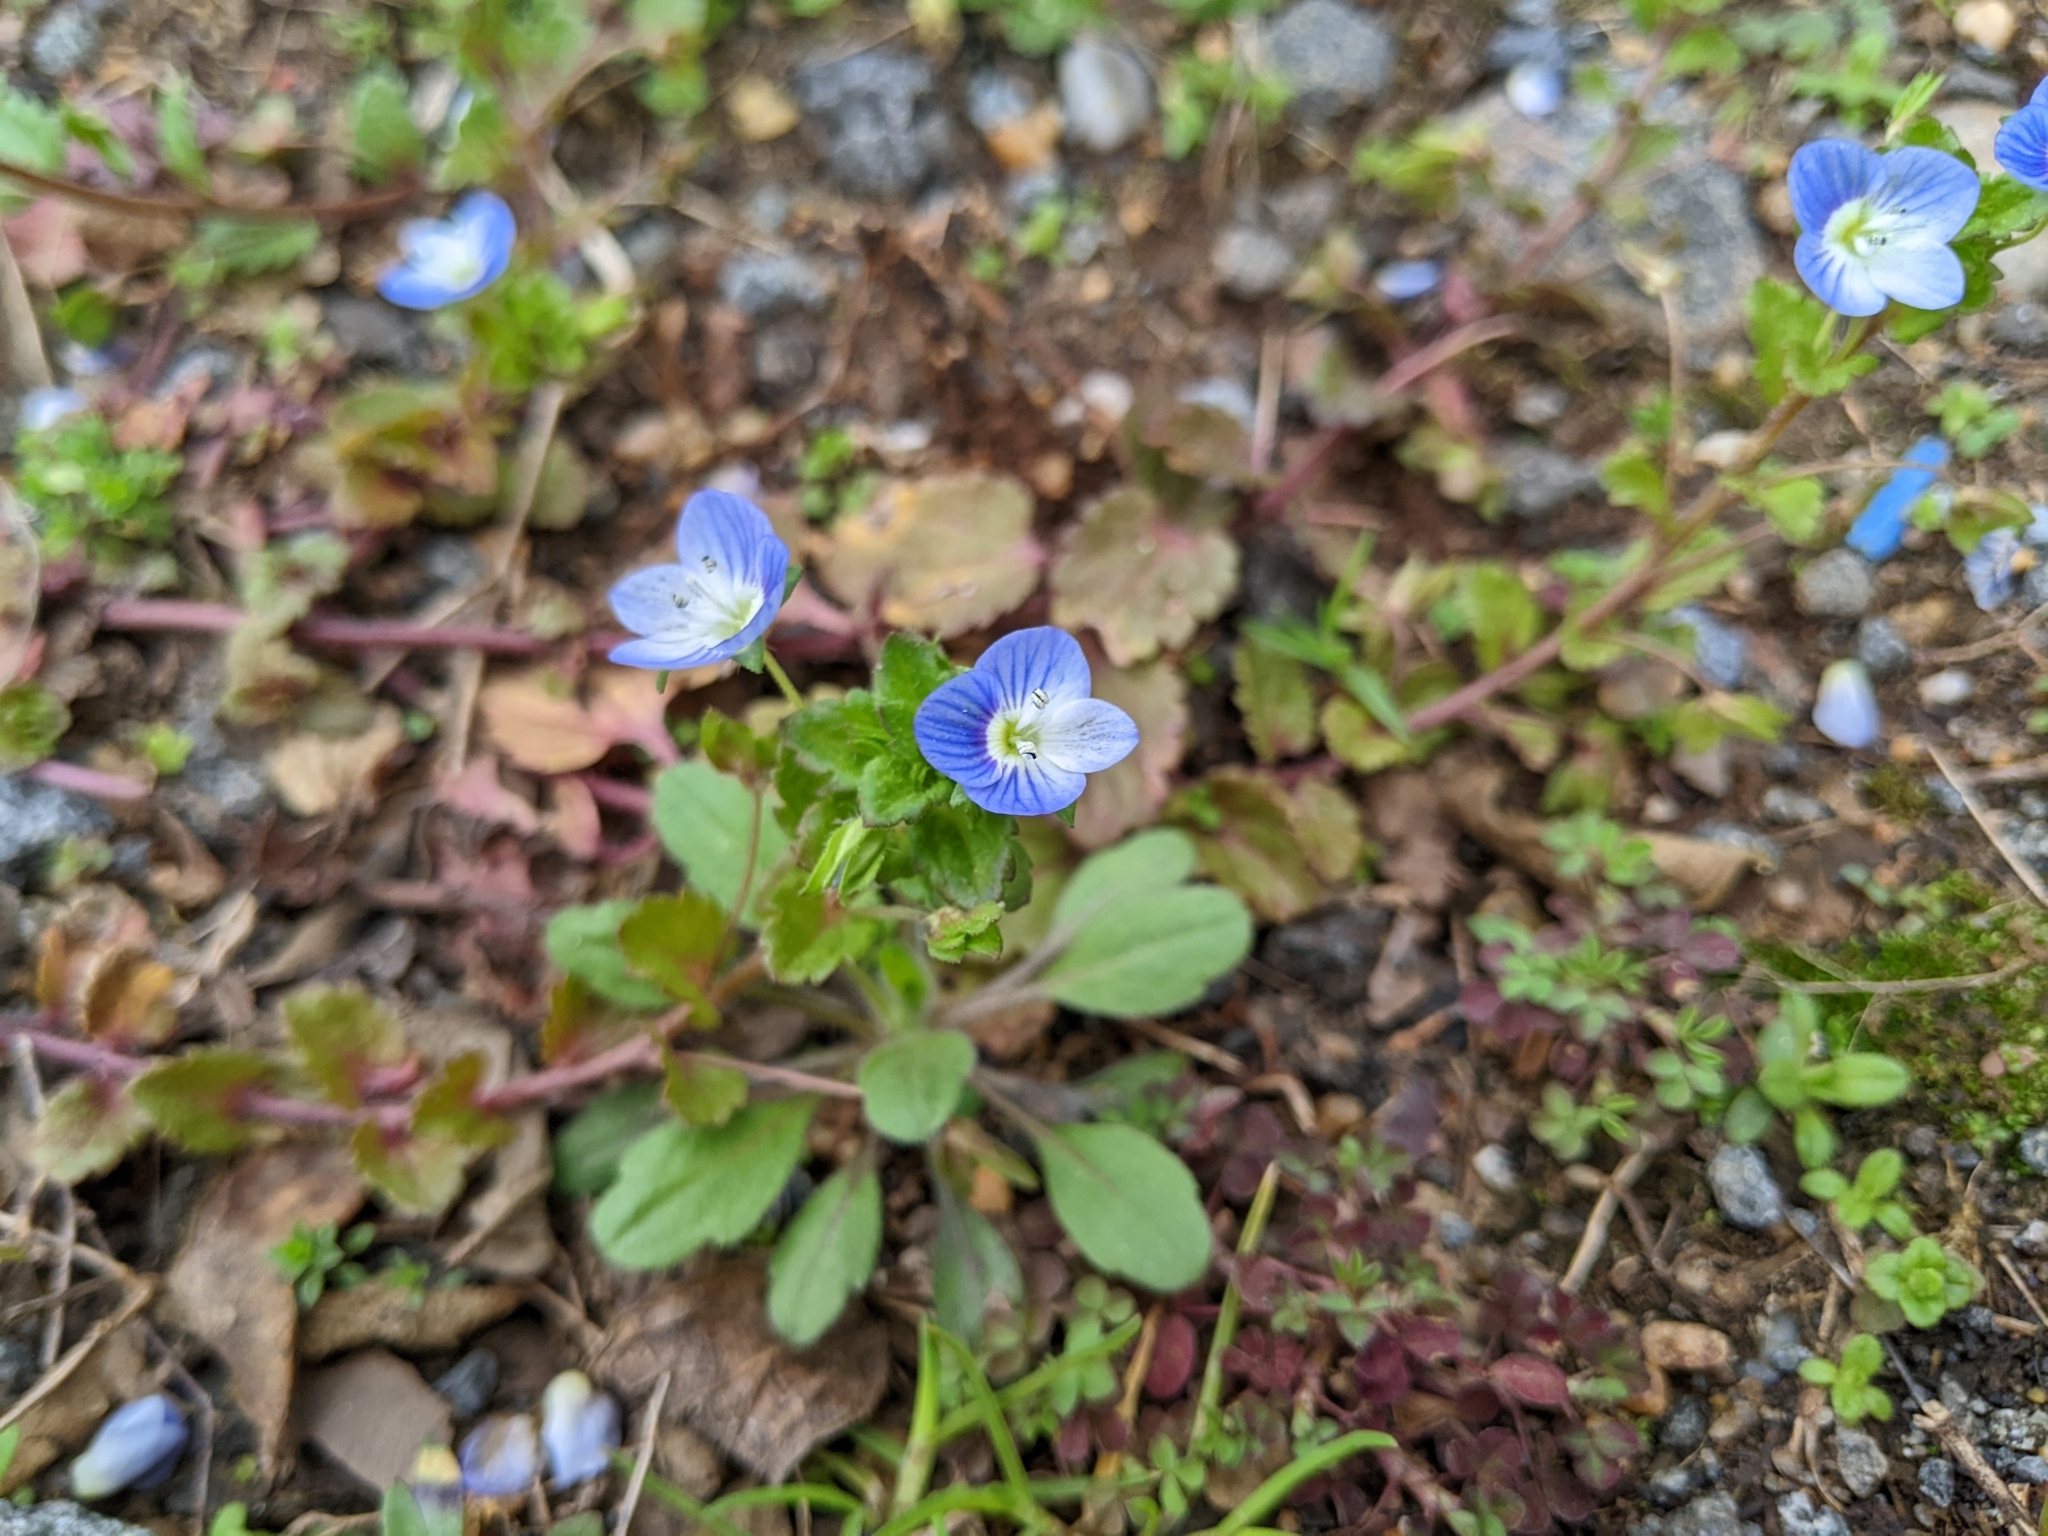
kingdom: Plantae
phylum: Tracheophyta
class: Magnoliopsida
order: Lamiales
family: Plantaginaceae
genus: Veronica
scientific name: Veronica persica
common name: Common field-speedwell
